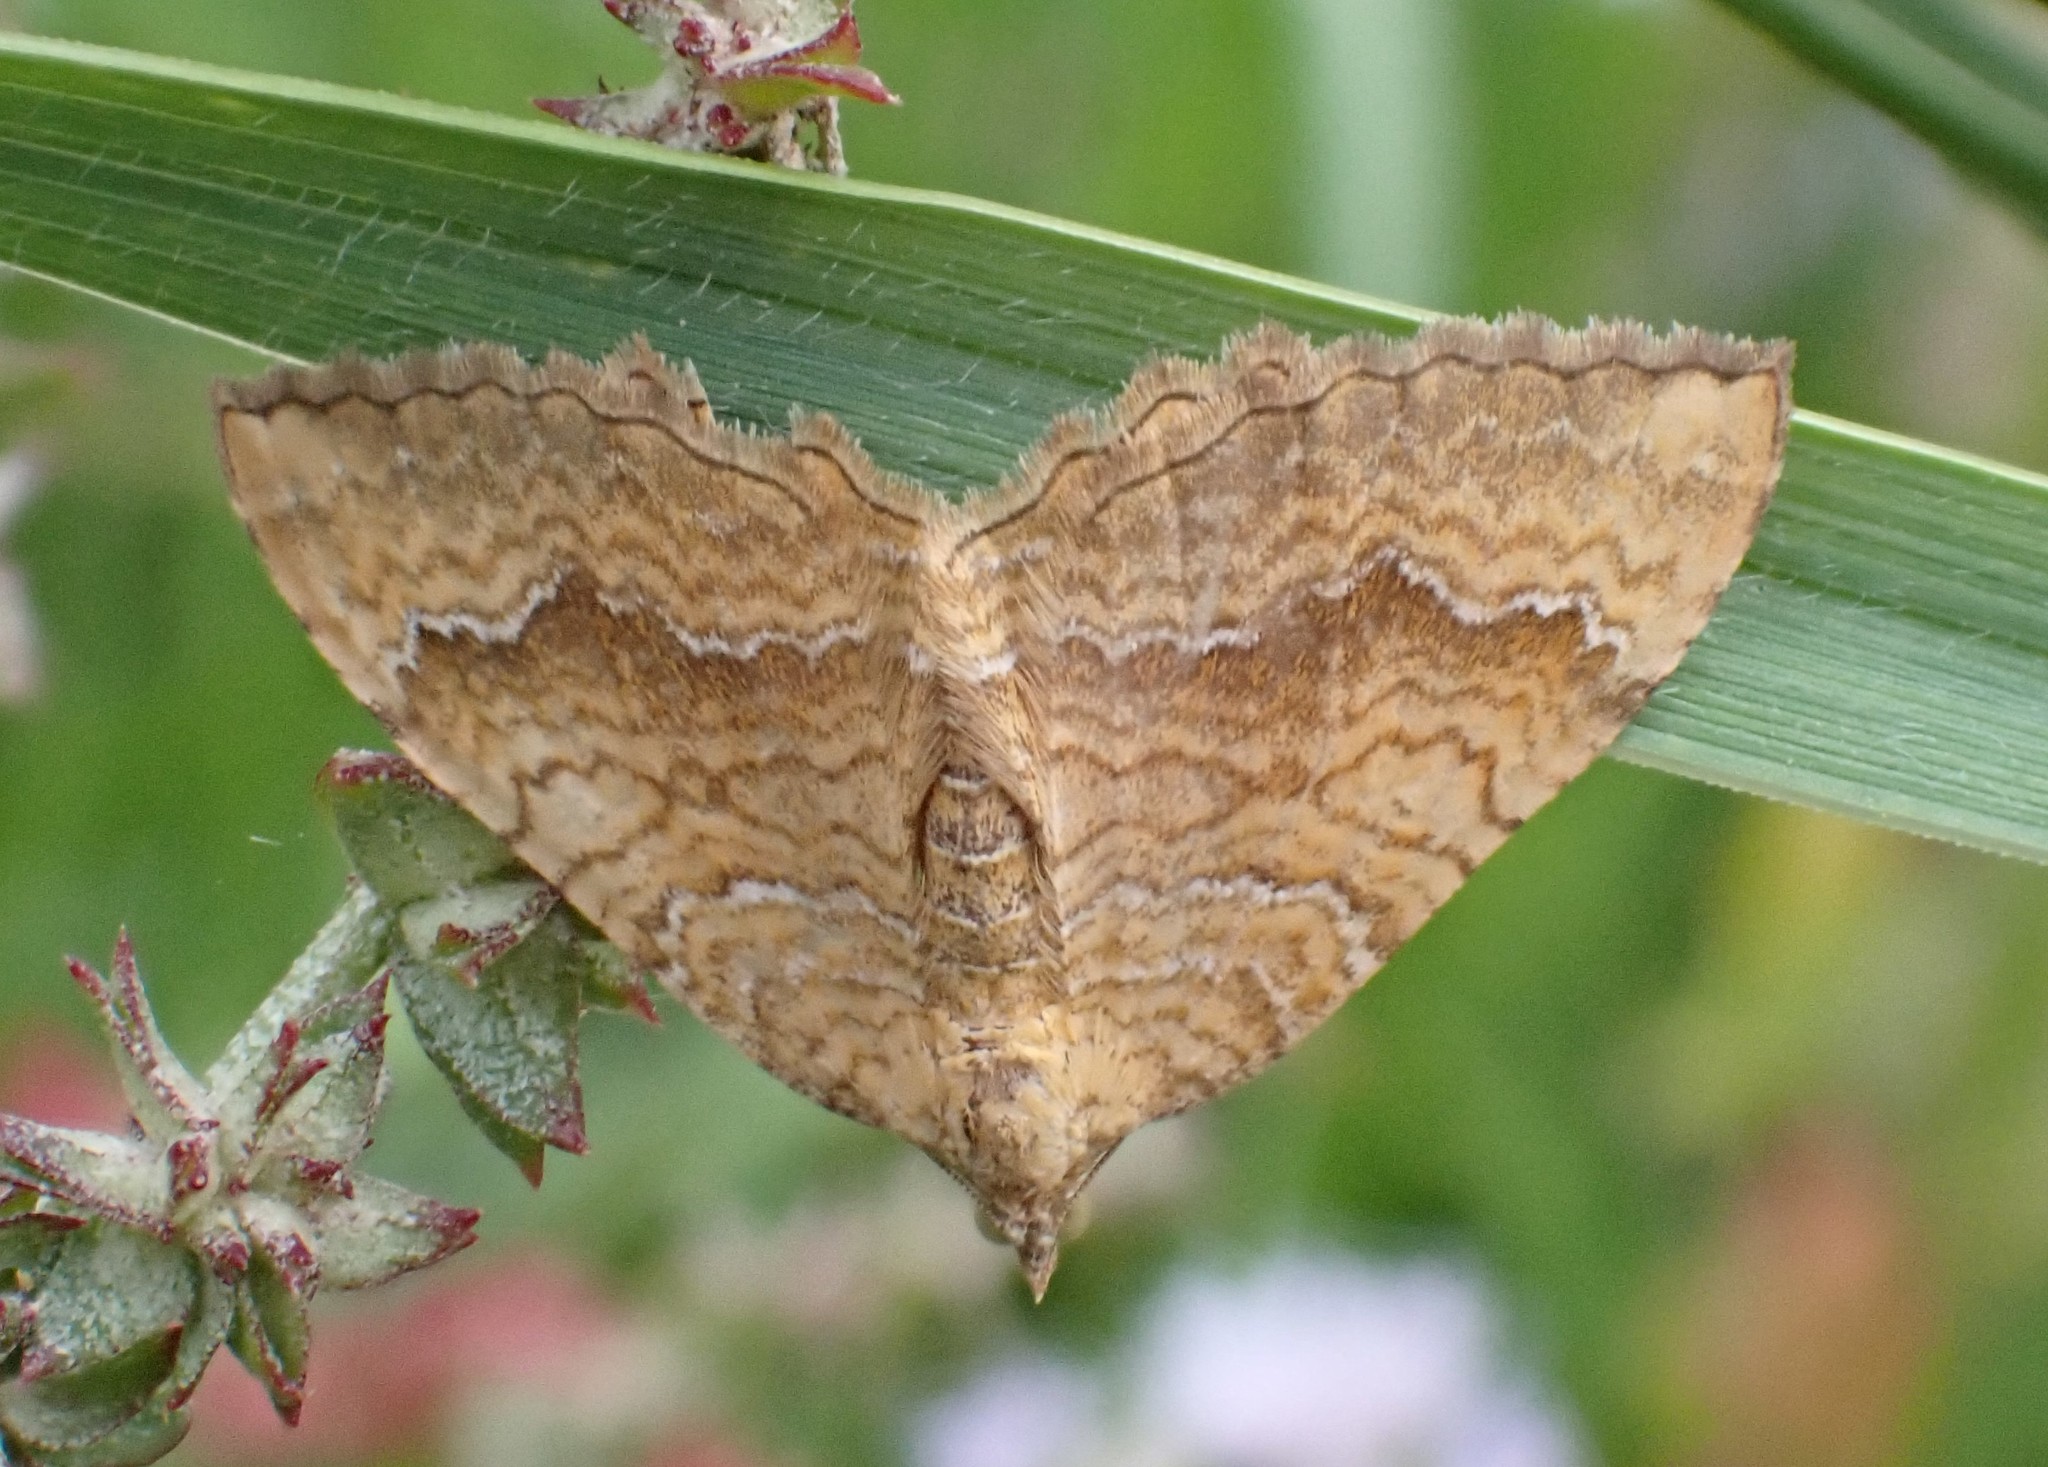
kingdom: Animalia
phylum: Arthropoda
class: Insecta
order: Lepidoptera
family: Geometridae
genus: Camptogramma
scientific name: Camptogramma bilineata
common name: Yellow shell
